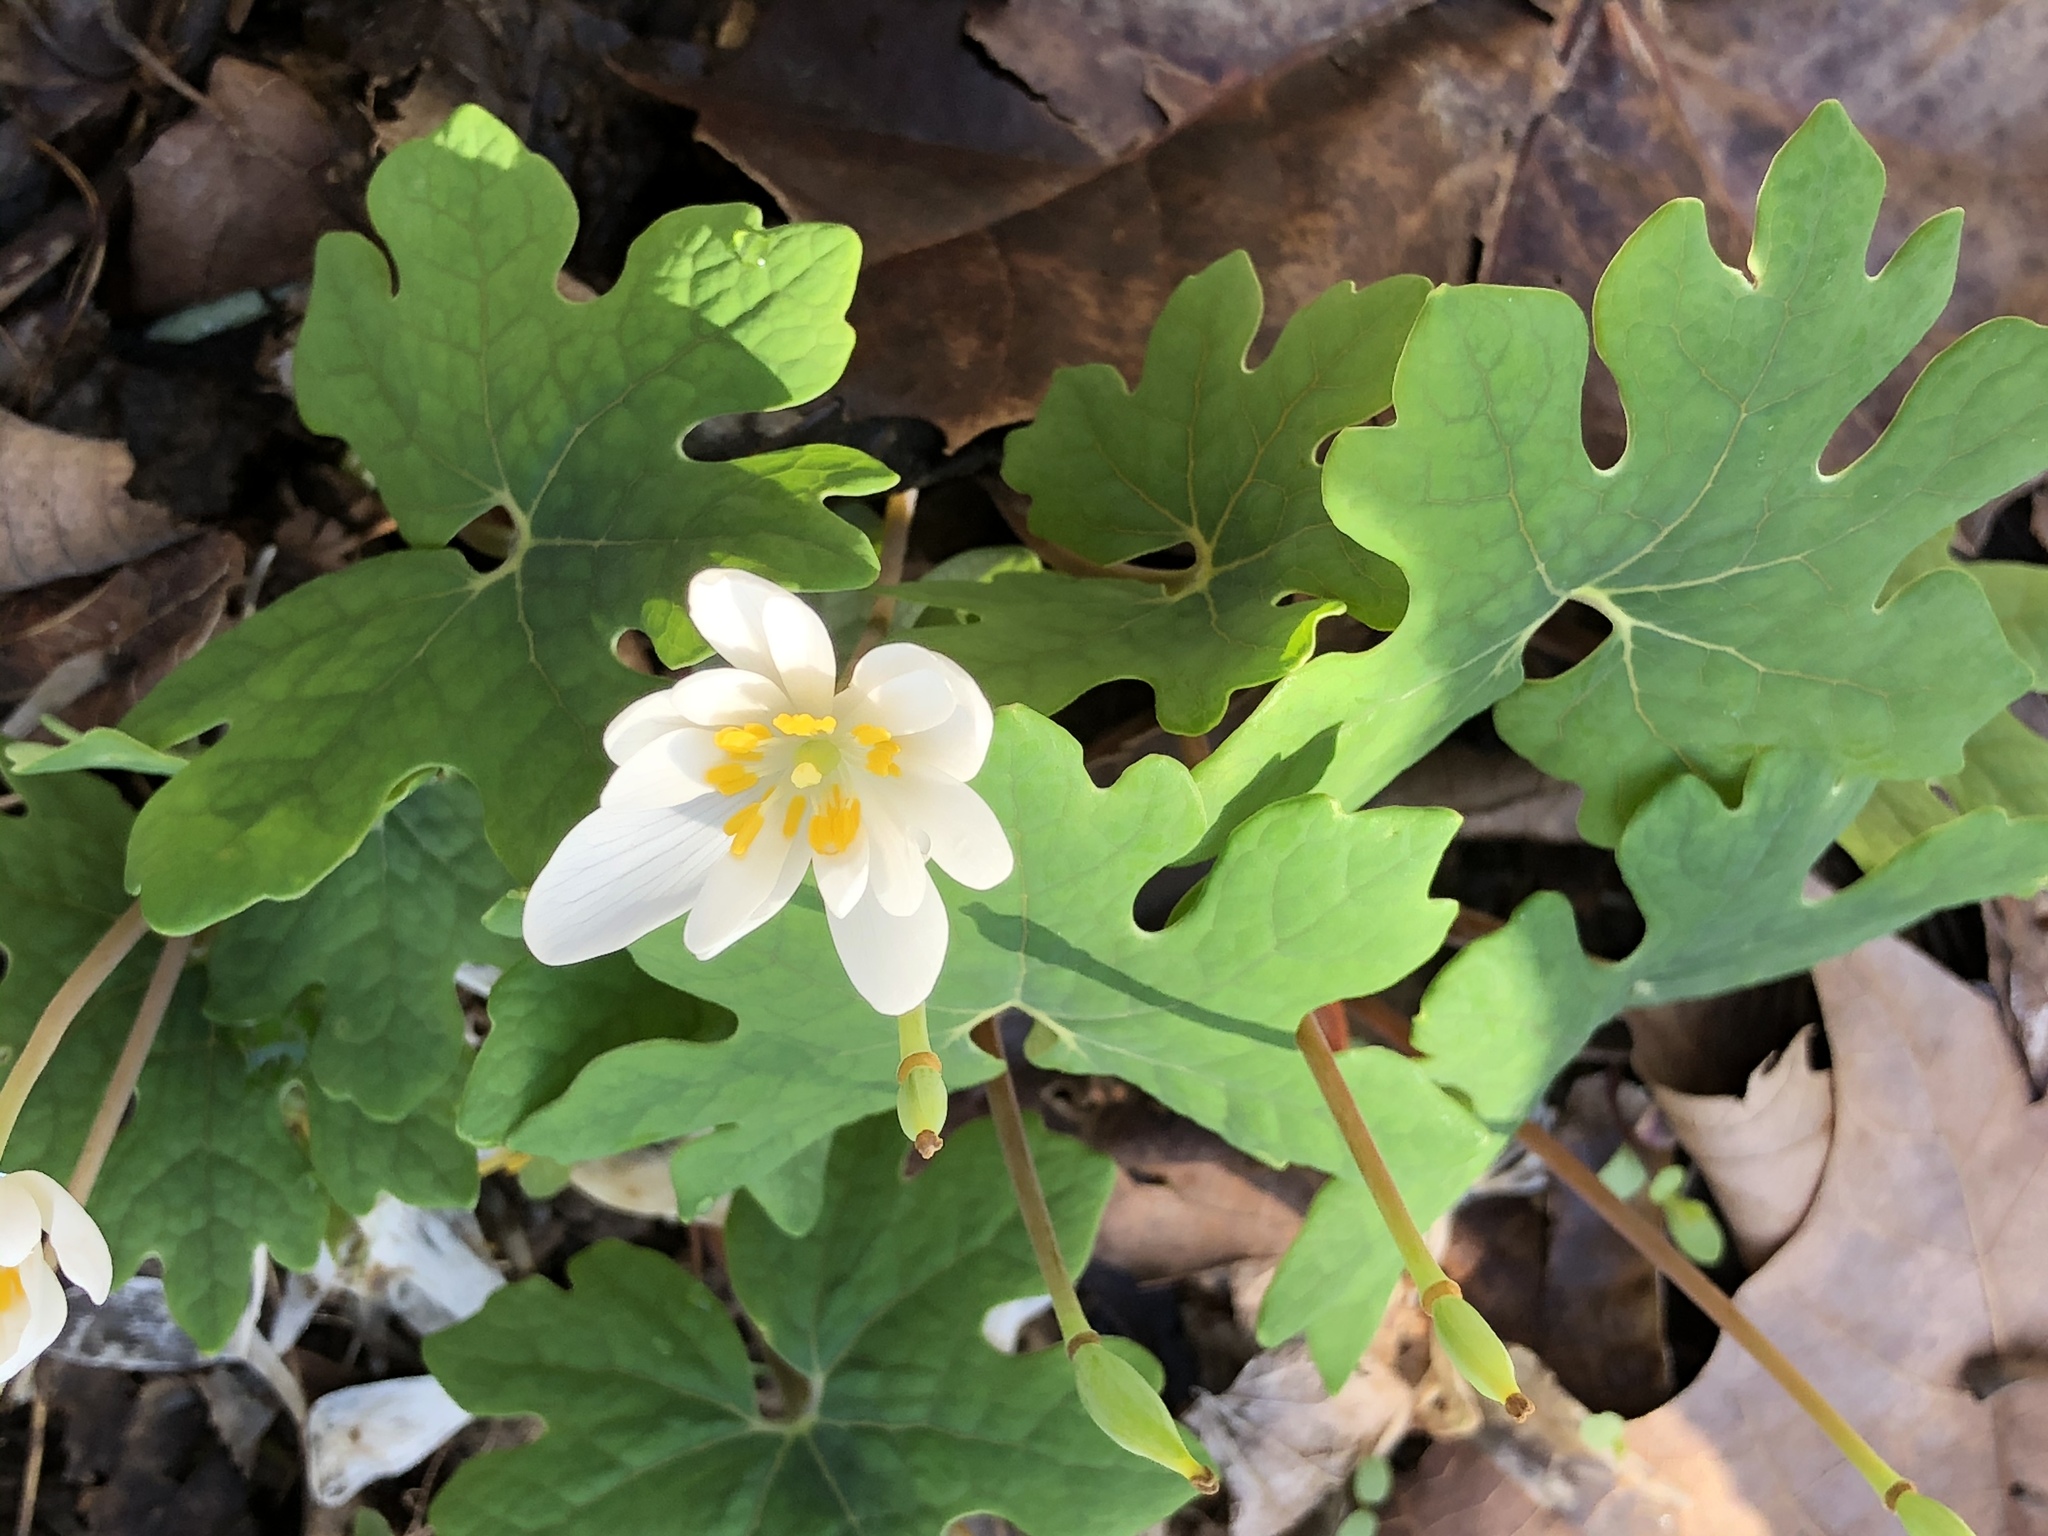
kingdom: Plantae
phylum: Tracheophyta
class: Magnoliopsida
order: Ranunculales
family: Papaveraceae
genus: Sanguinaria
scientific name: Sanguinaria canadensis
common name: Bloodroot
